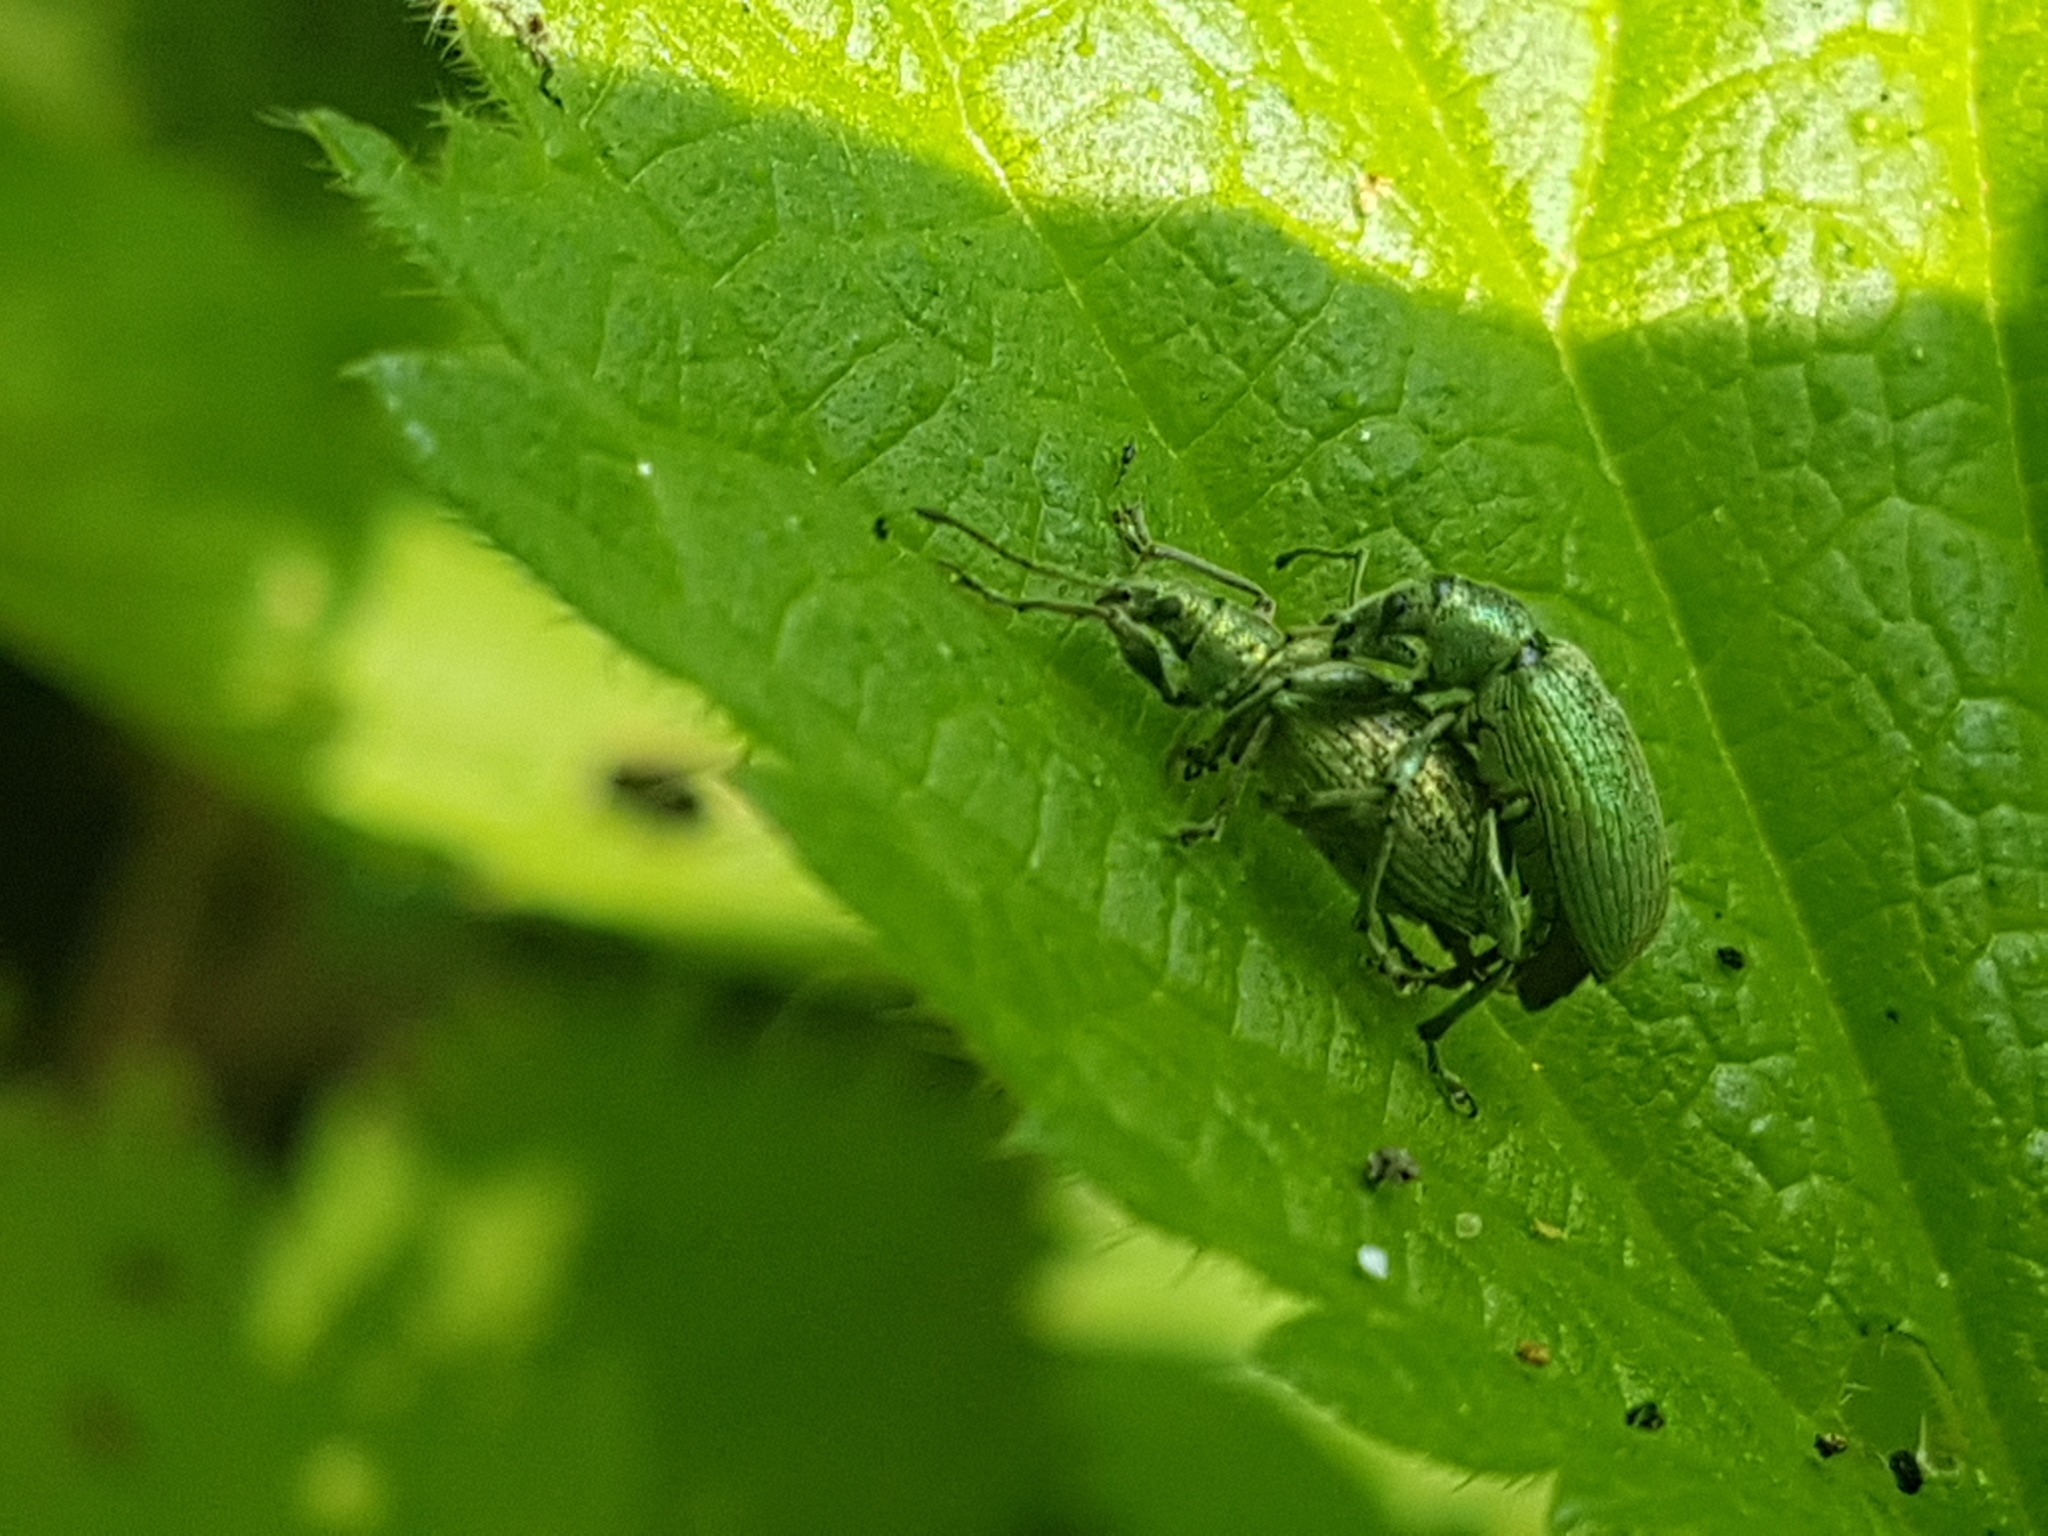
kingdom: Animalia
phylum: Arthropoda
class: Insecta
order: Coleoptera
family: Curculionidae
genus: Phyllobius
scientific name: Phyllobius pomaceus
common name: Green nettle weevil
